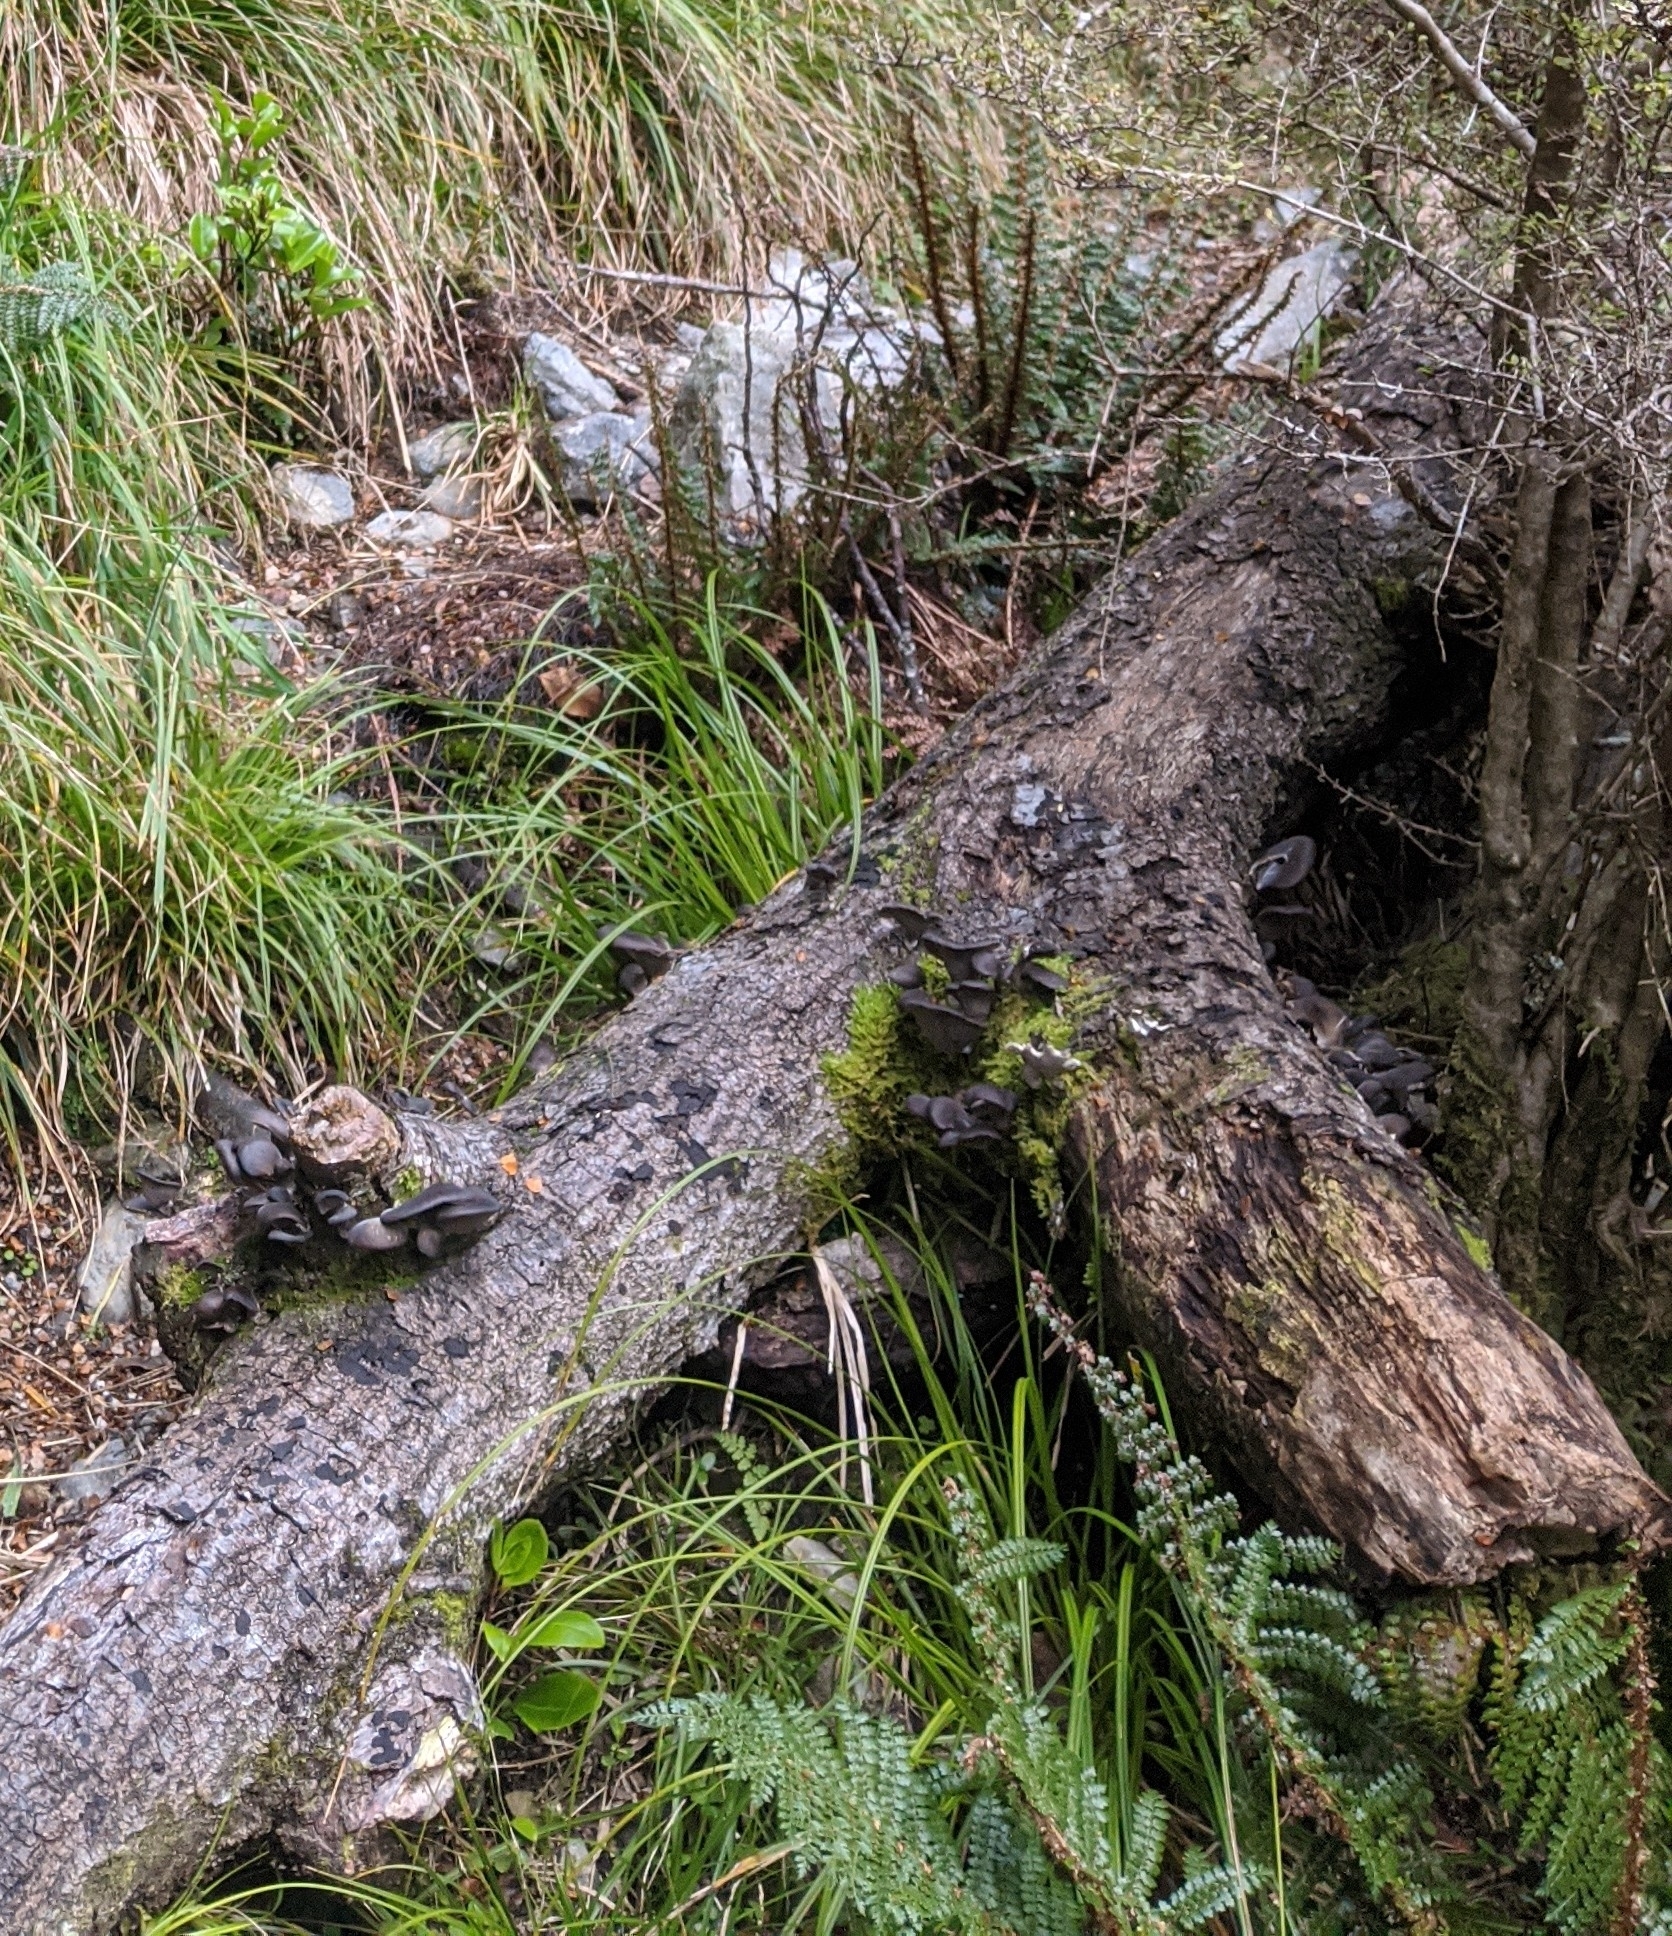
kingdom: Fungi
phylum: Basidiomycota
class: Agaricomycetes
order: Agaricales
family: Pleurotaceae
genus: Pleurotus
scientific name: Pleurotus purpureo-olivaceus
